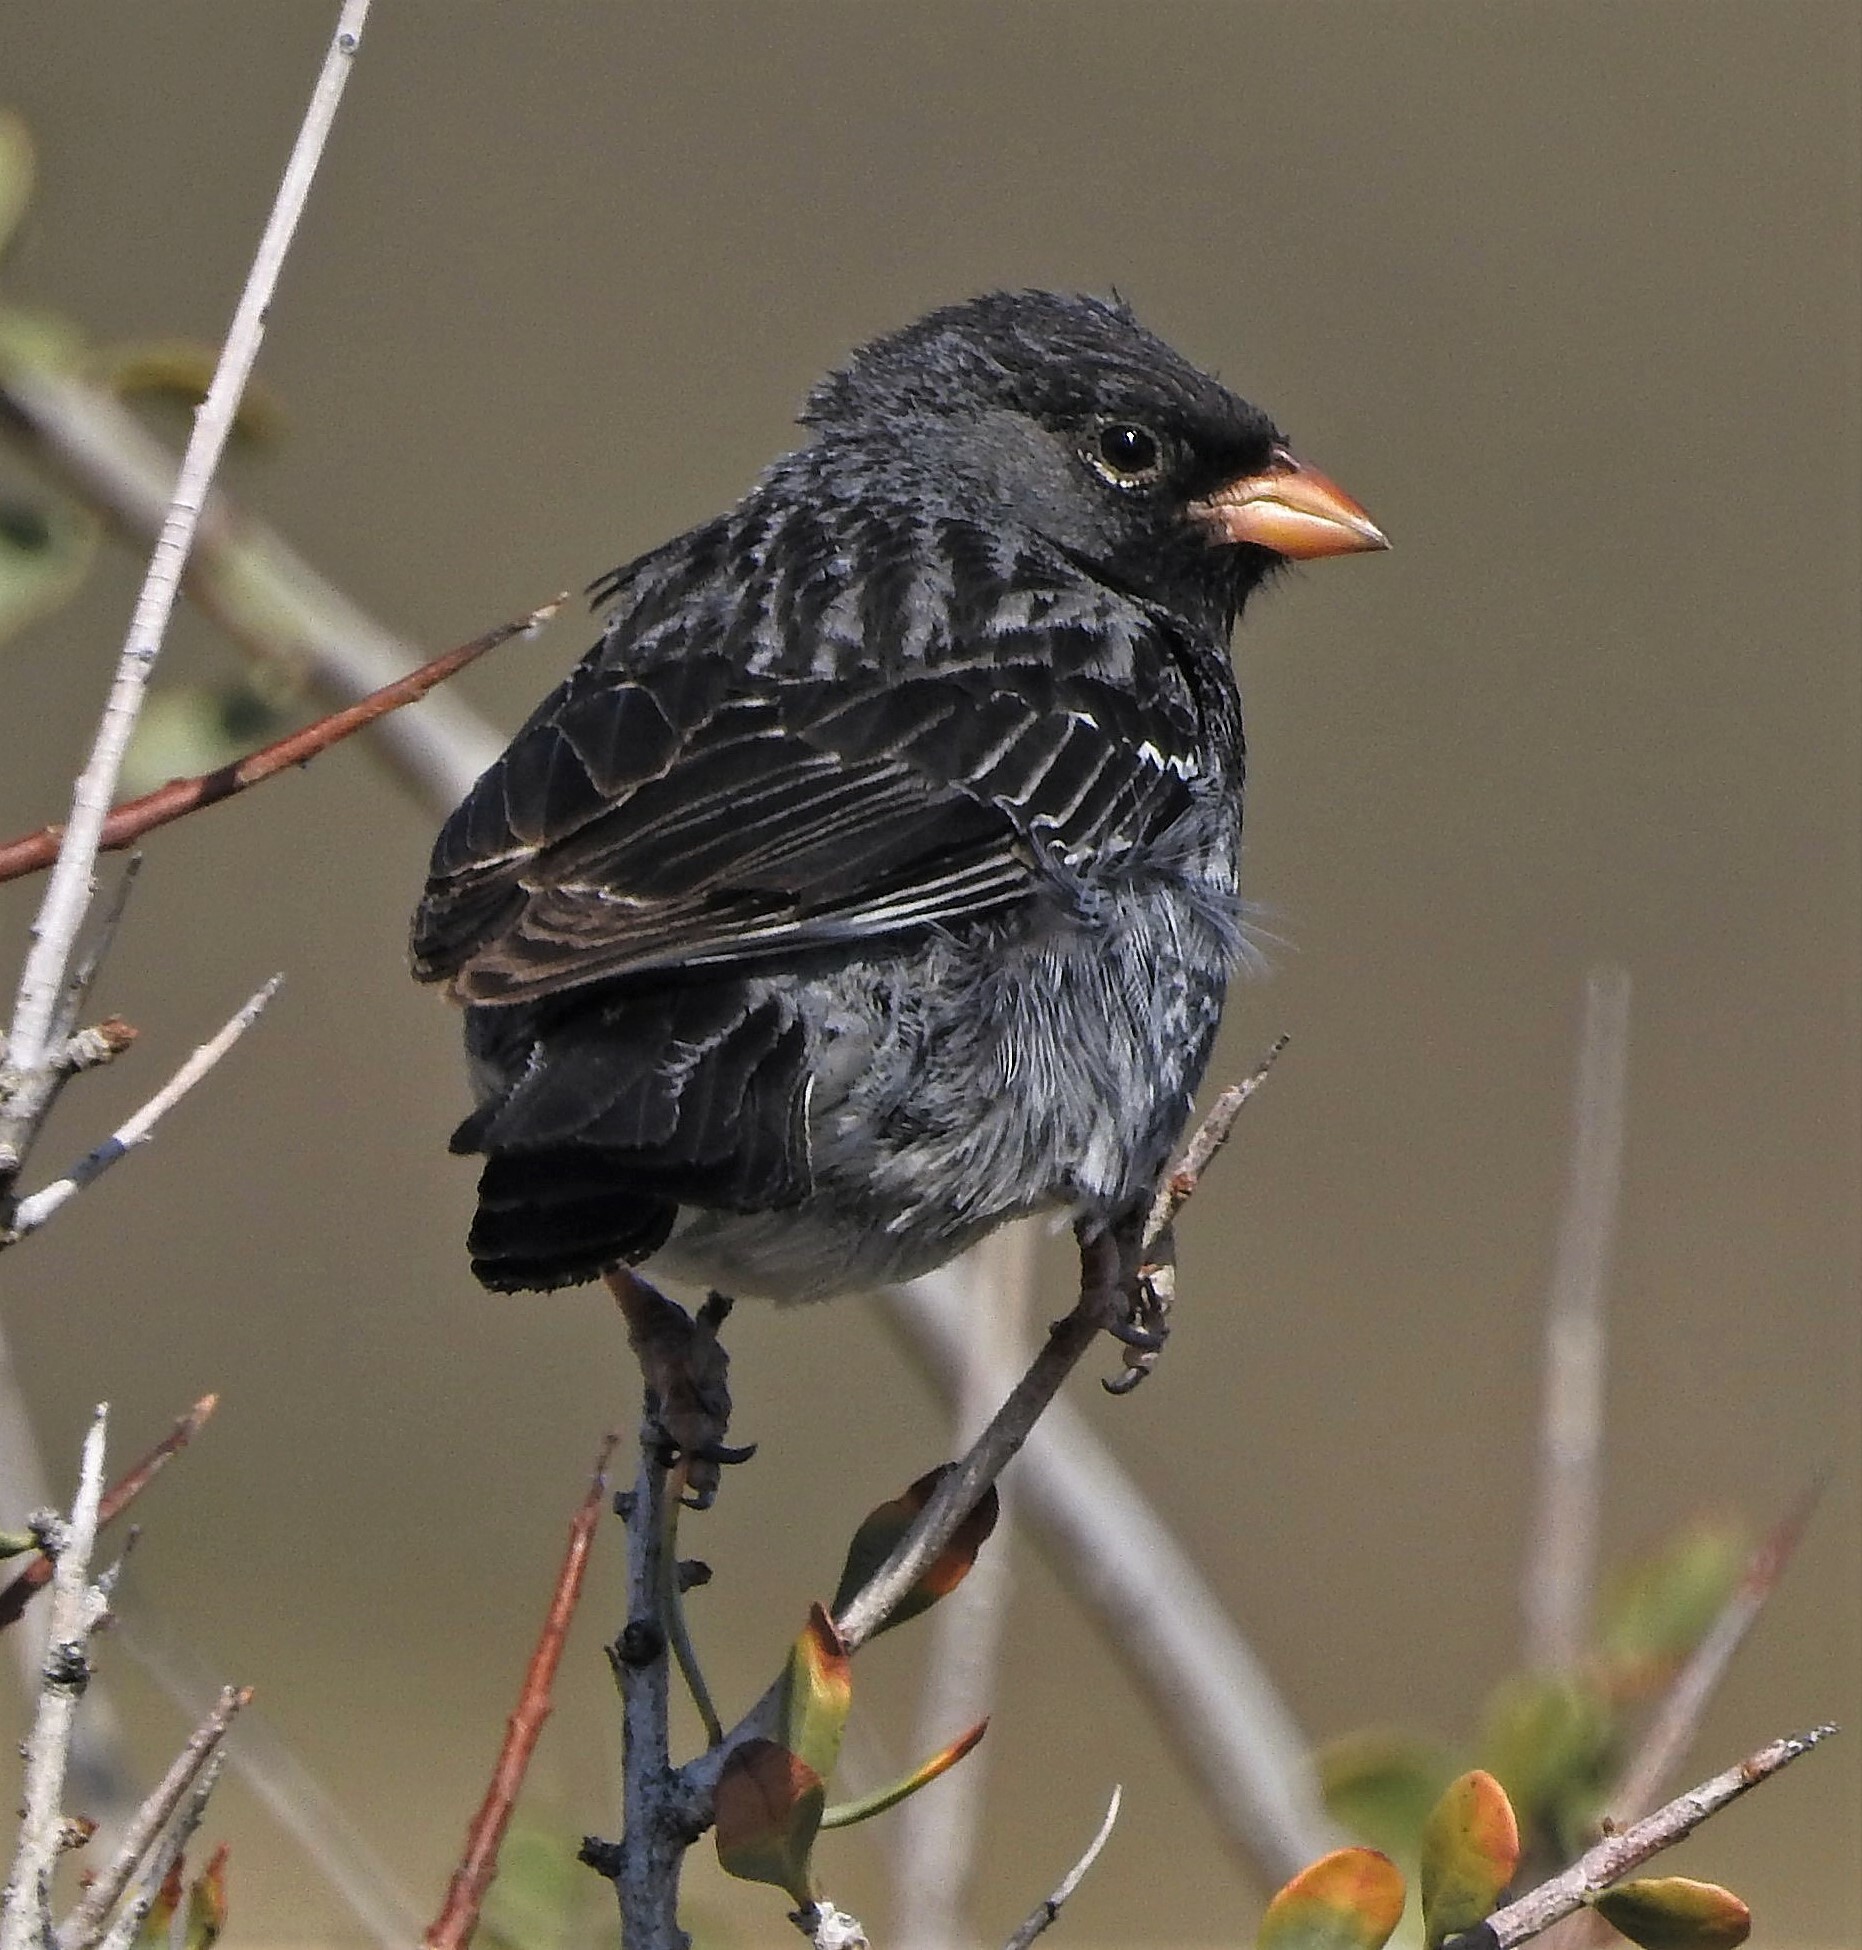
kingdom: Animalia
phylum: Chordata
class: Aves
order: Passeriformes
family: Thraupidae
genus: Rhopospina
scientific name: Rhopospina fruticeti
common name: Mourning sierra finch
